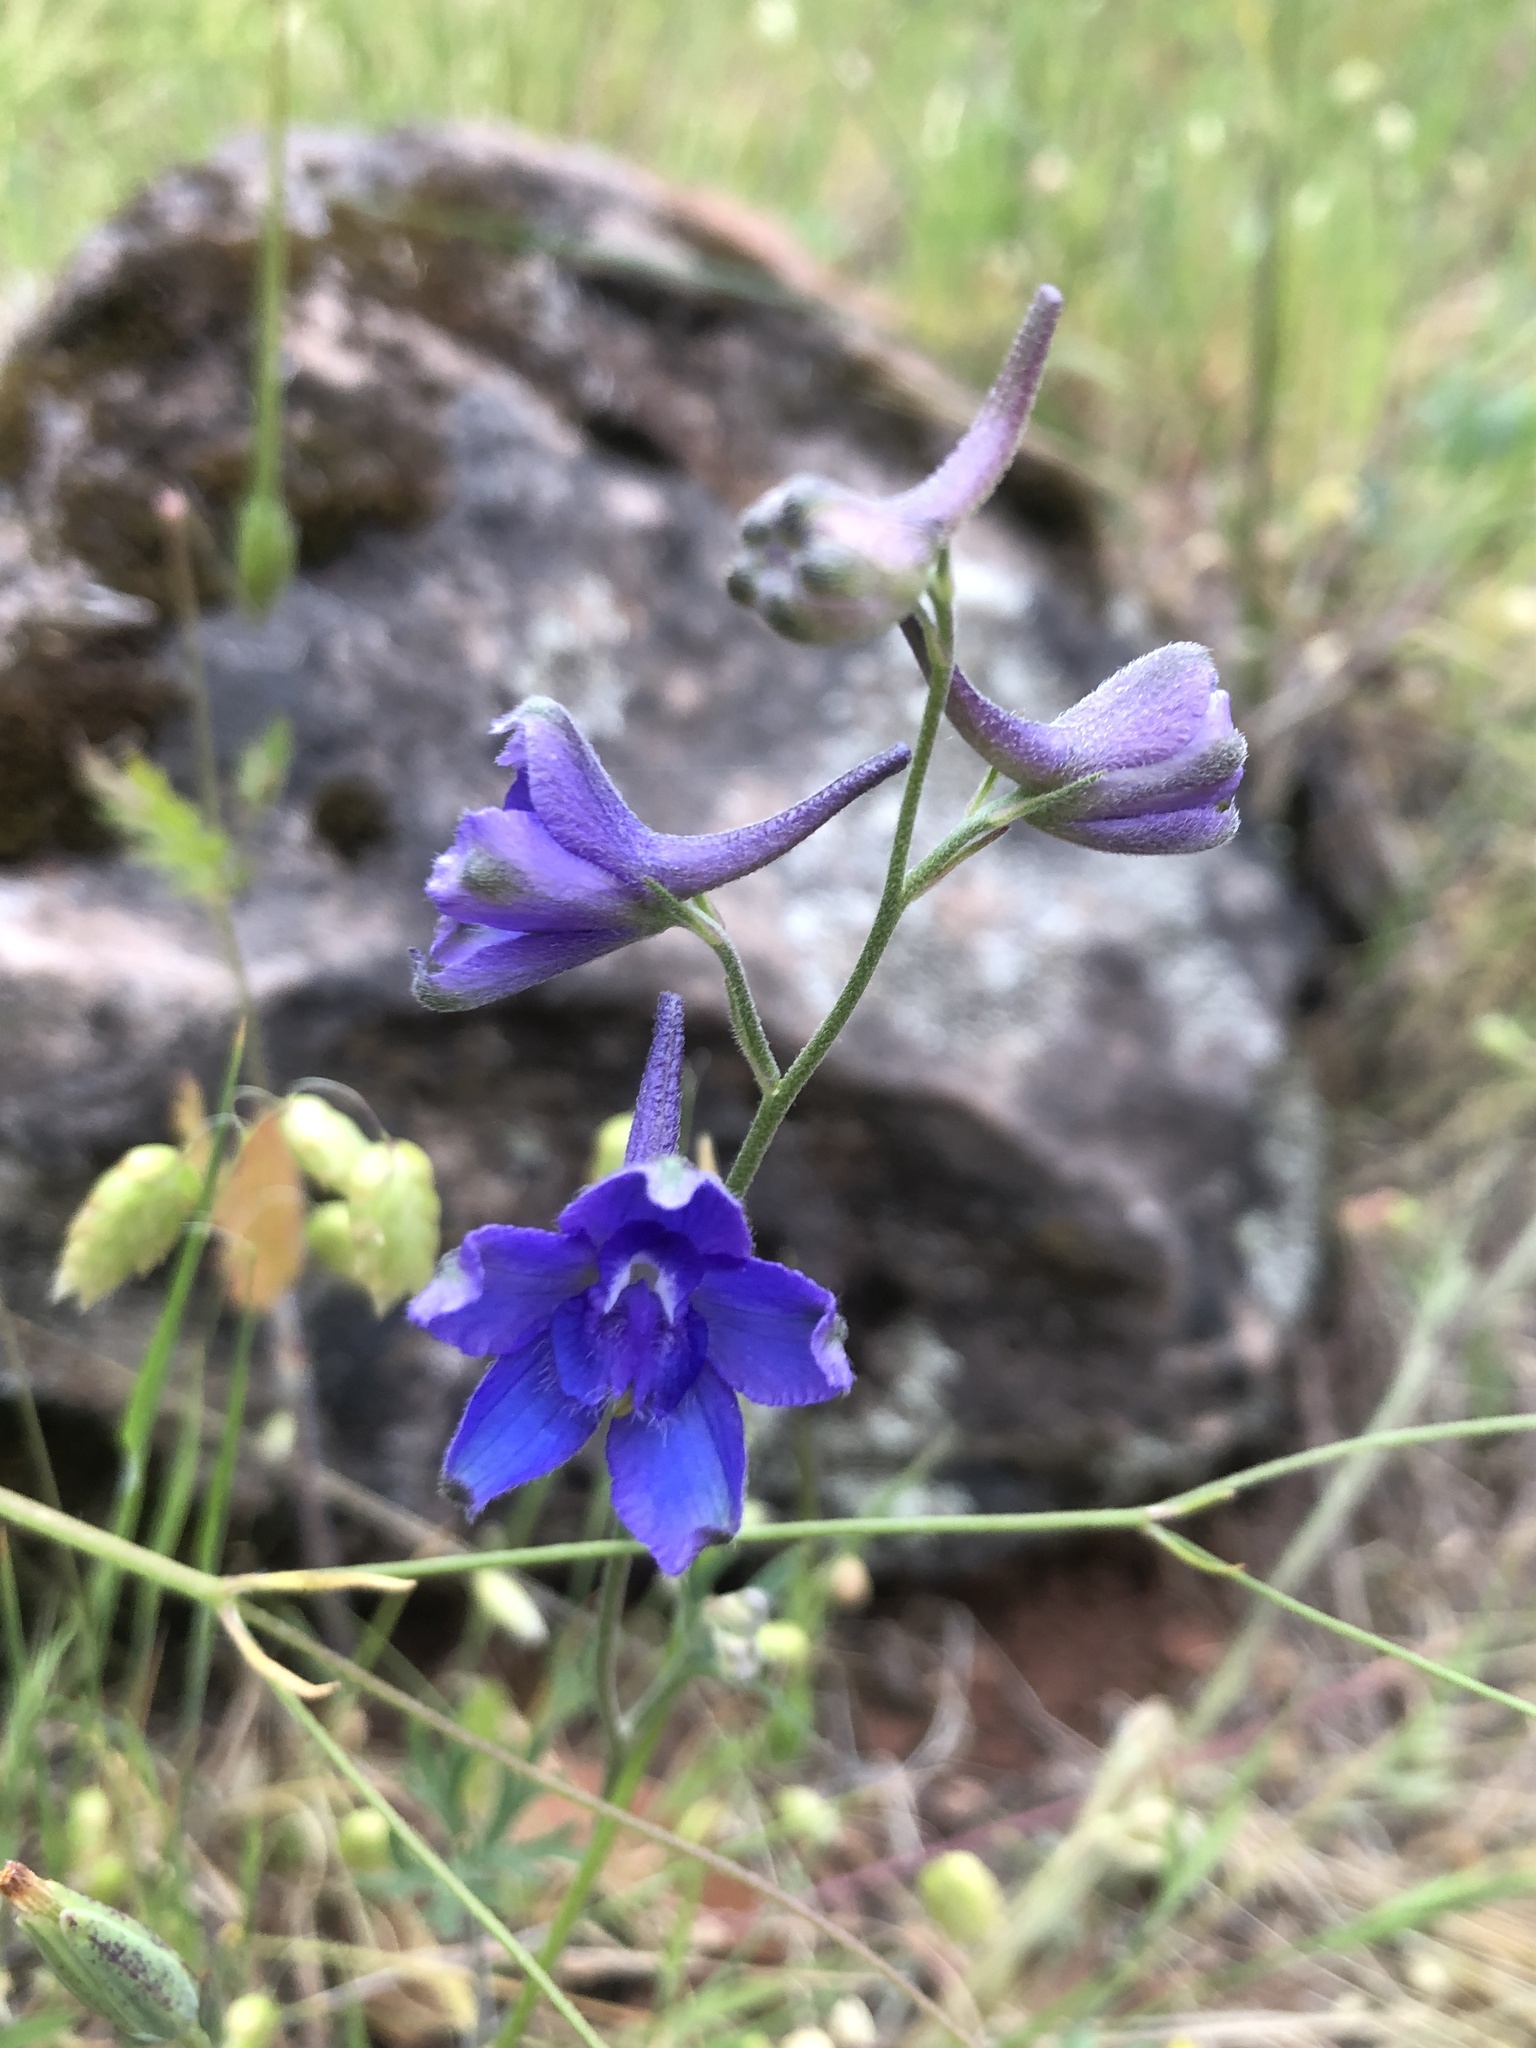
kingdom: Plantae
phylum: Tracheophyta
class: Magnoliopsida
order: Ranunculales
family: Ranunculaceae
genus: Delphinium
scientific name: Delphinium variegatum
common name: Royal larkspur
